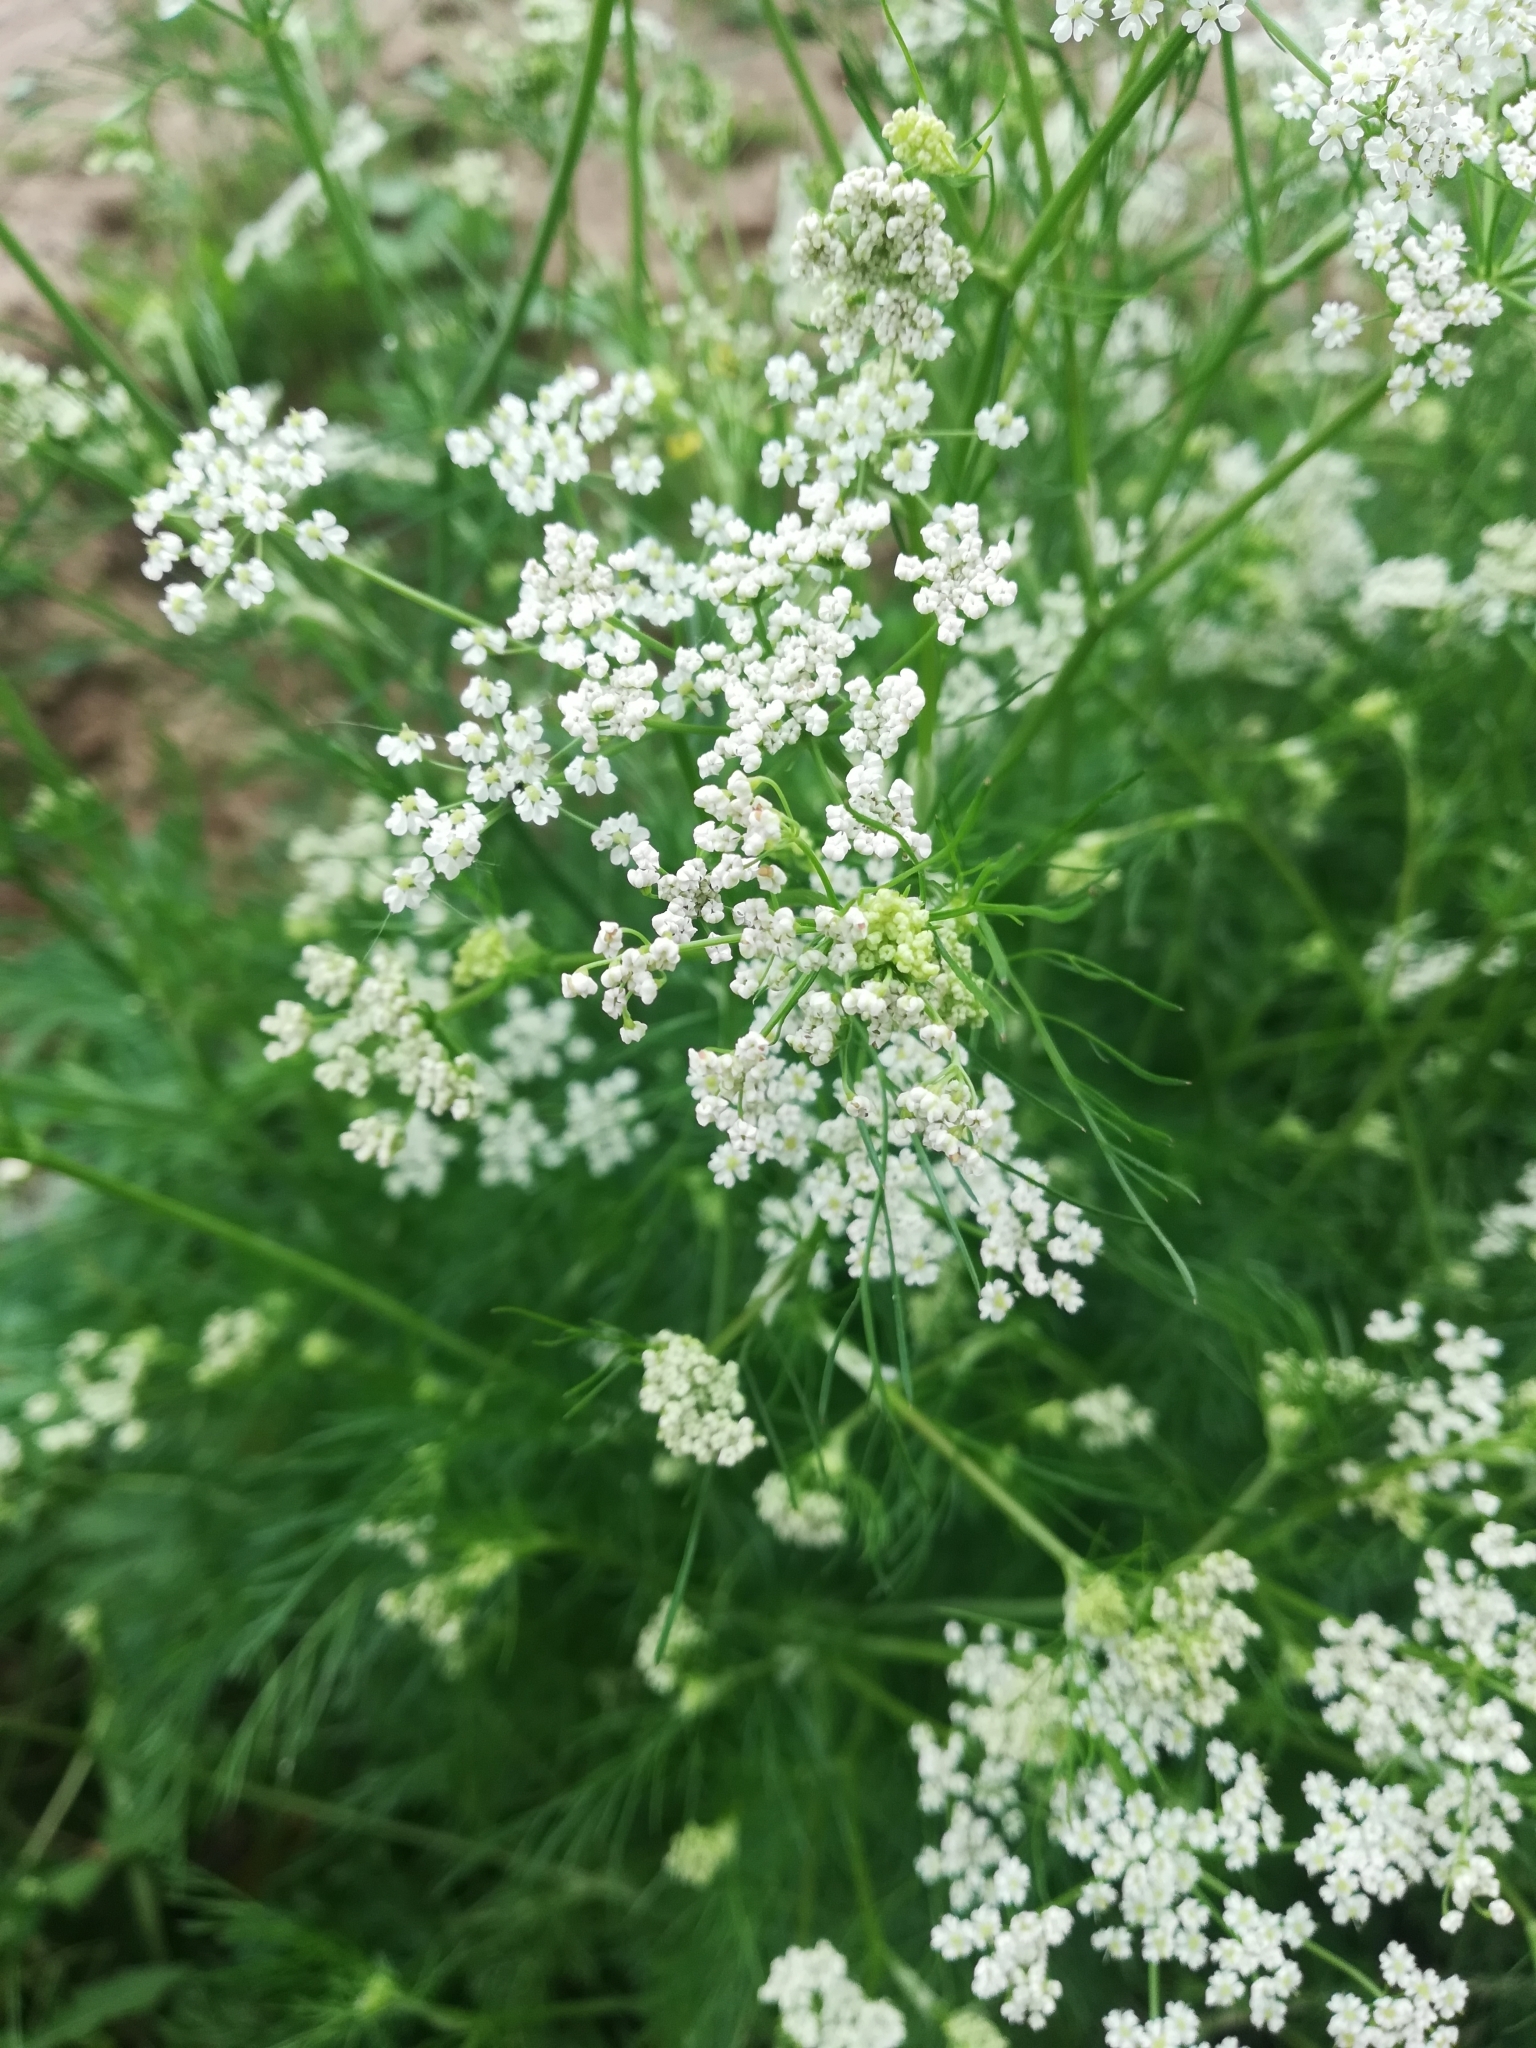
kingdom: Plantae
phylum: Tracheophyta
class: Magnoliopsida
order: Apiales
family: Apiaceae
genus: Carum
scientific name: Carum carvi
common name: Caraway
